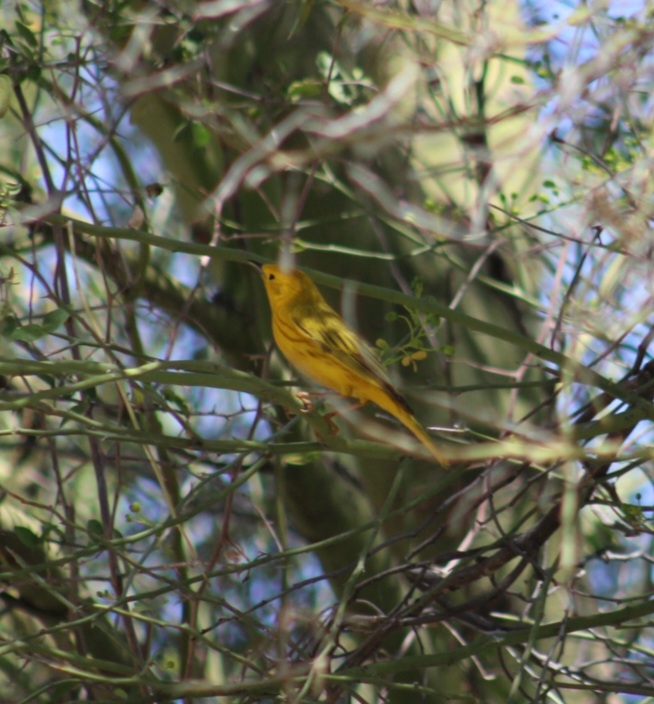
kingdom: Animalia
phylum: Chordata
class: Aves
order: Passeriformes
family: Parulidae
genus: Setophaga
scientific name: Setophaga petechia
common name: Yellow warbler
